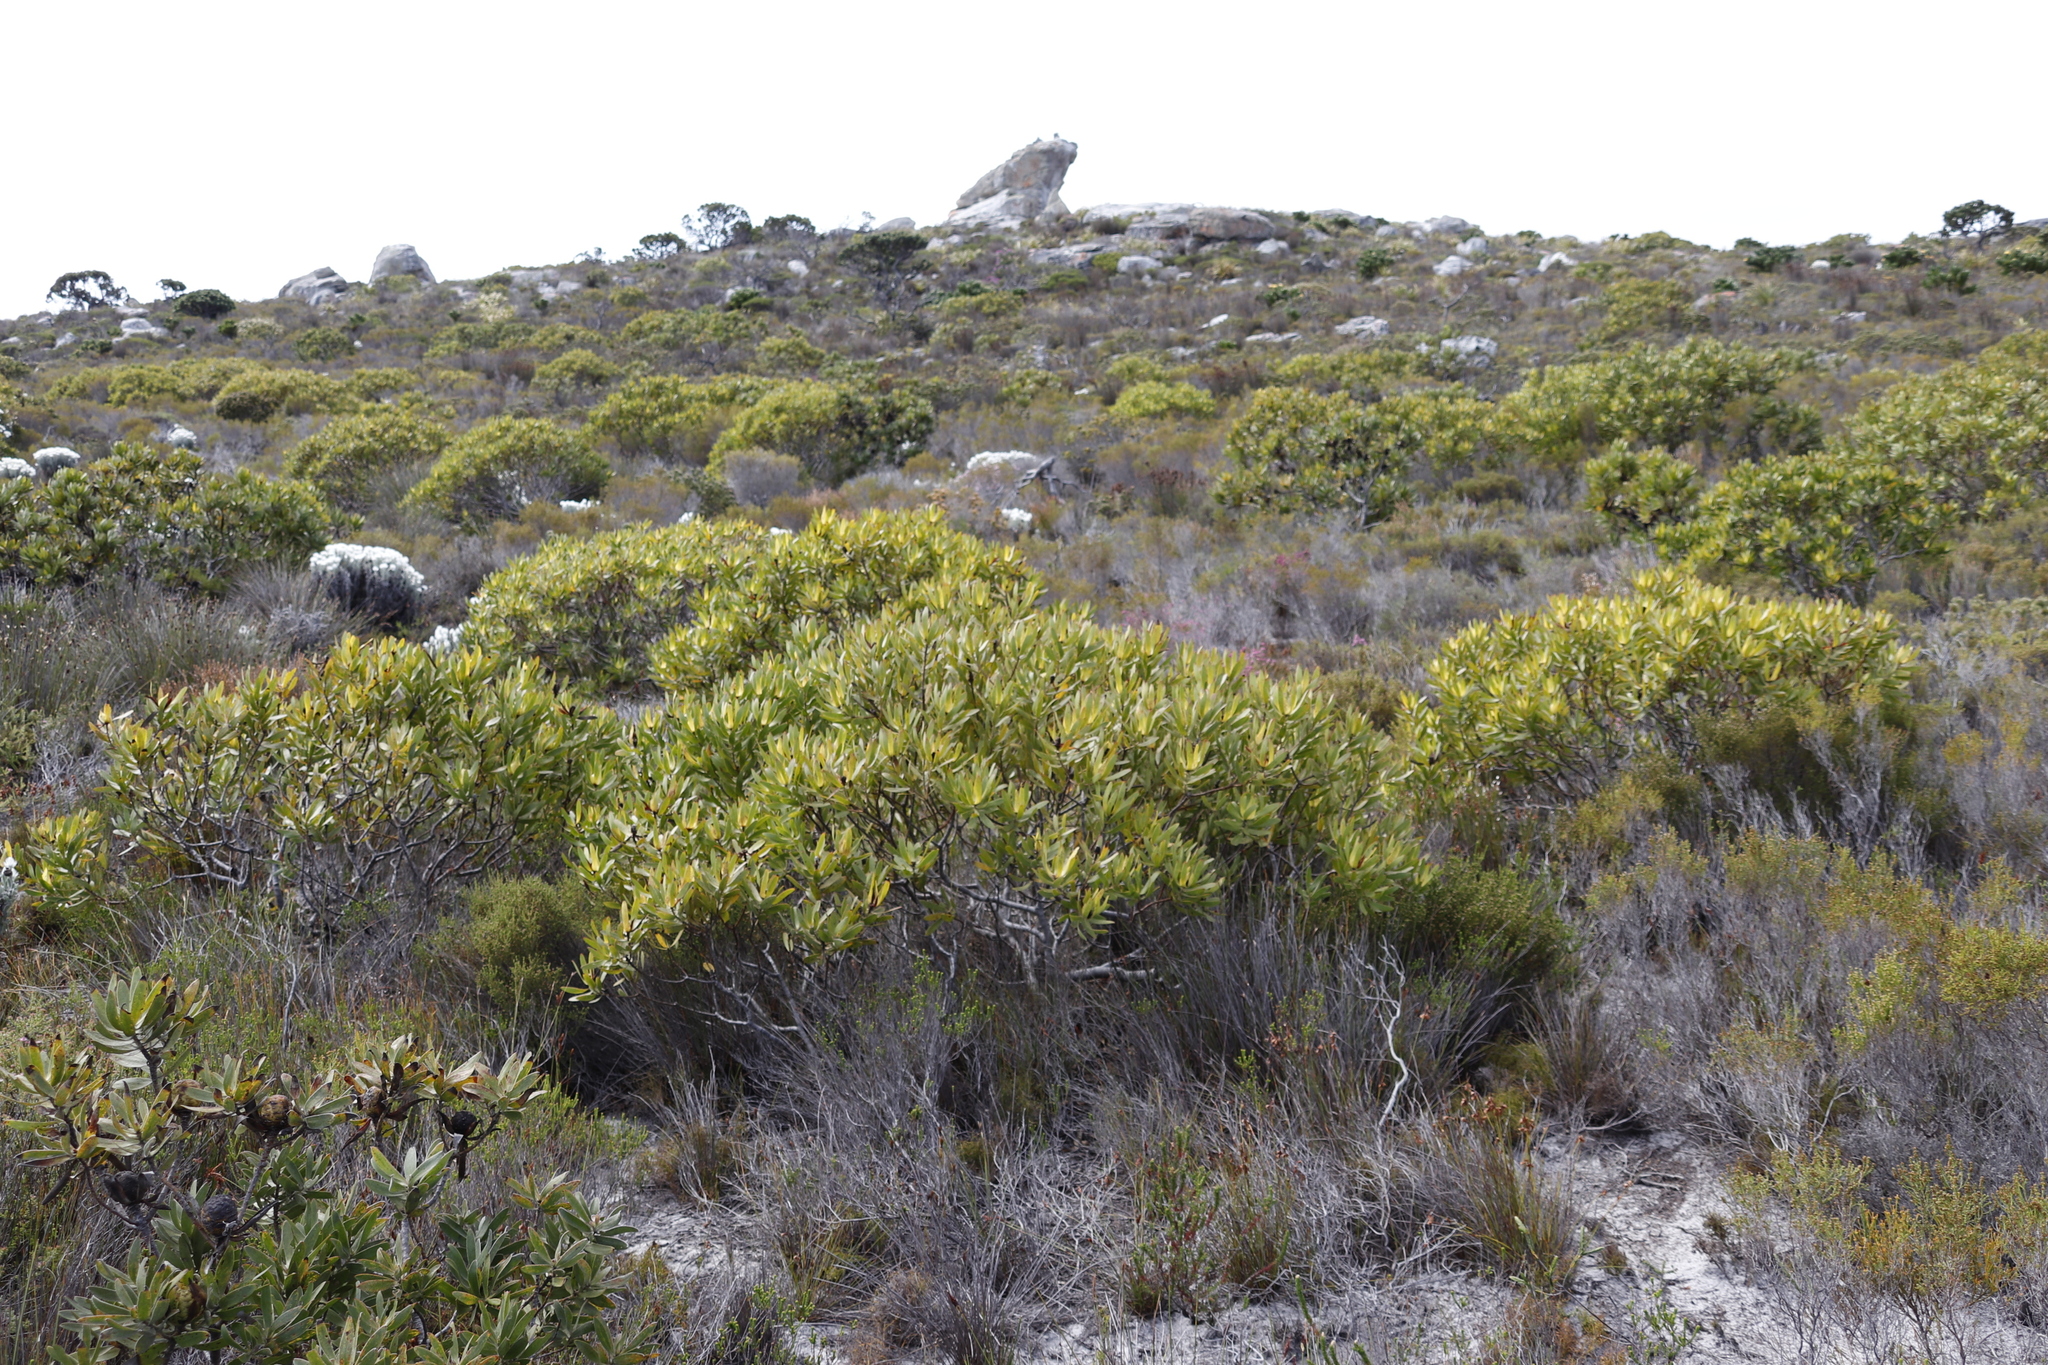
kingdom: Plantae
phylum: Tracheophyta
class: Magnoliopsida
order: Proteales
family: Proteaceae
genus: Leucadendron
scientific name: Leucadendron laureolum
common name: Golden sunshinebush
